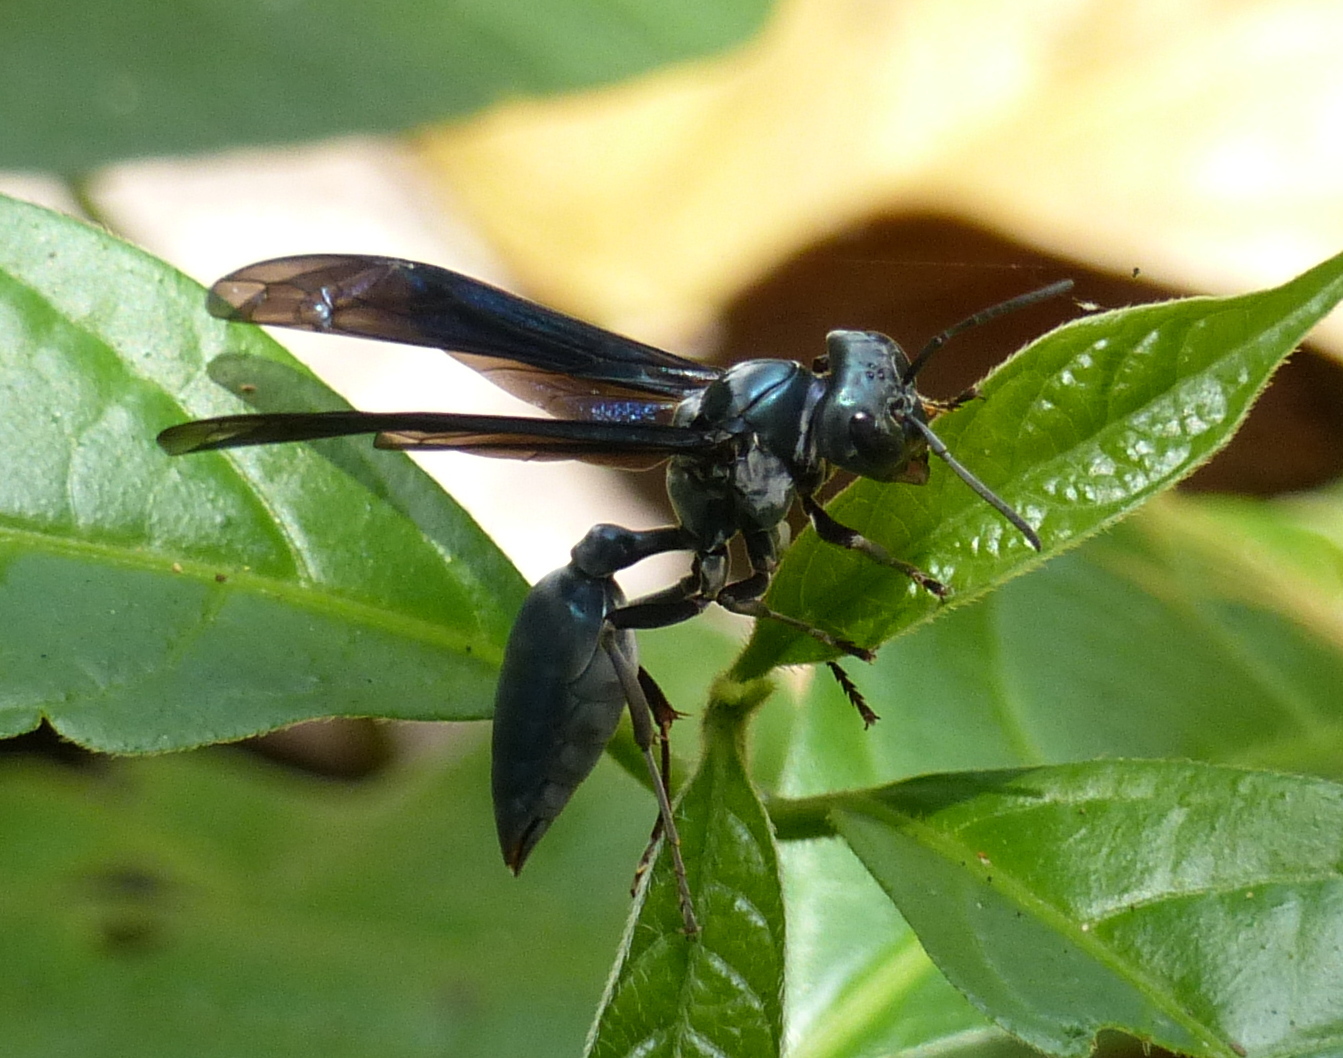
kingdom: Animalia
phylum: Arthropoda
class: Insecta
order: Hymenoptera
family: Vespidae
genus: Synoeca
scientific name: Synoeca ilheensis
